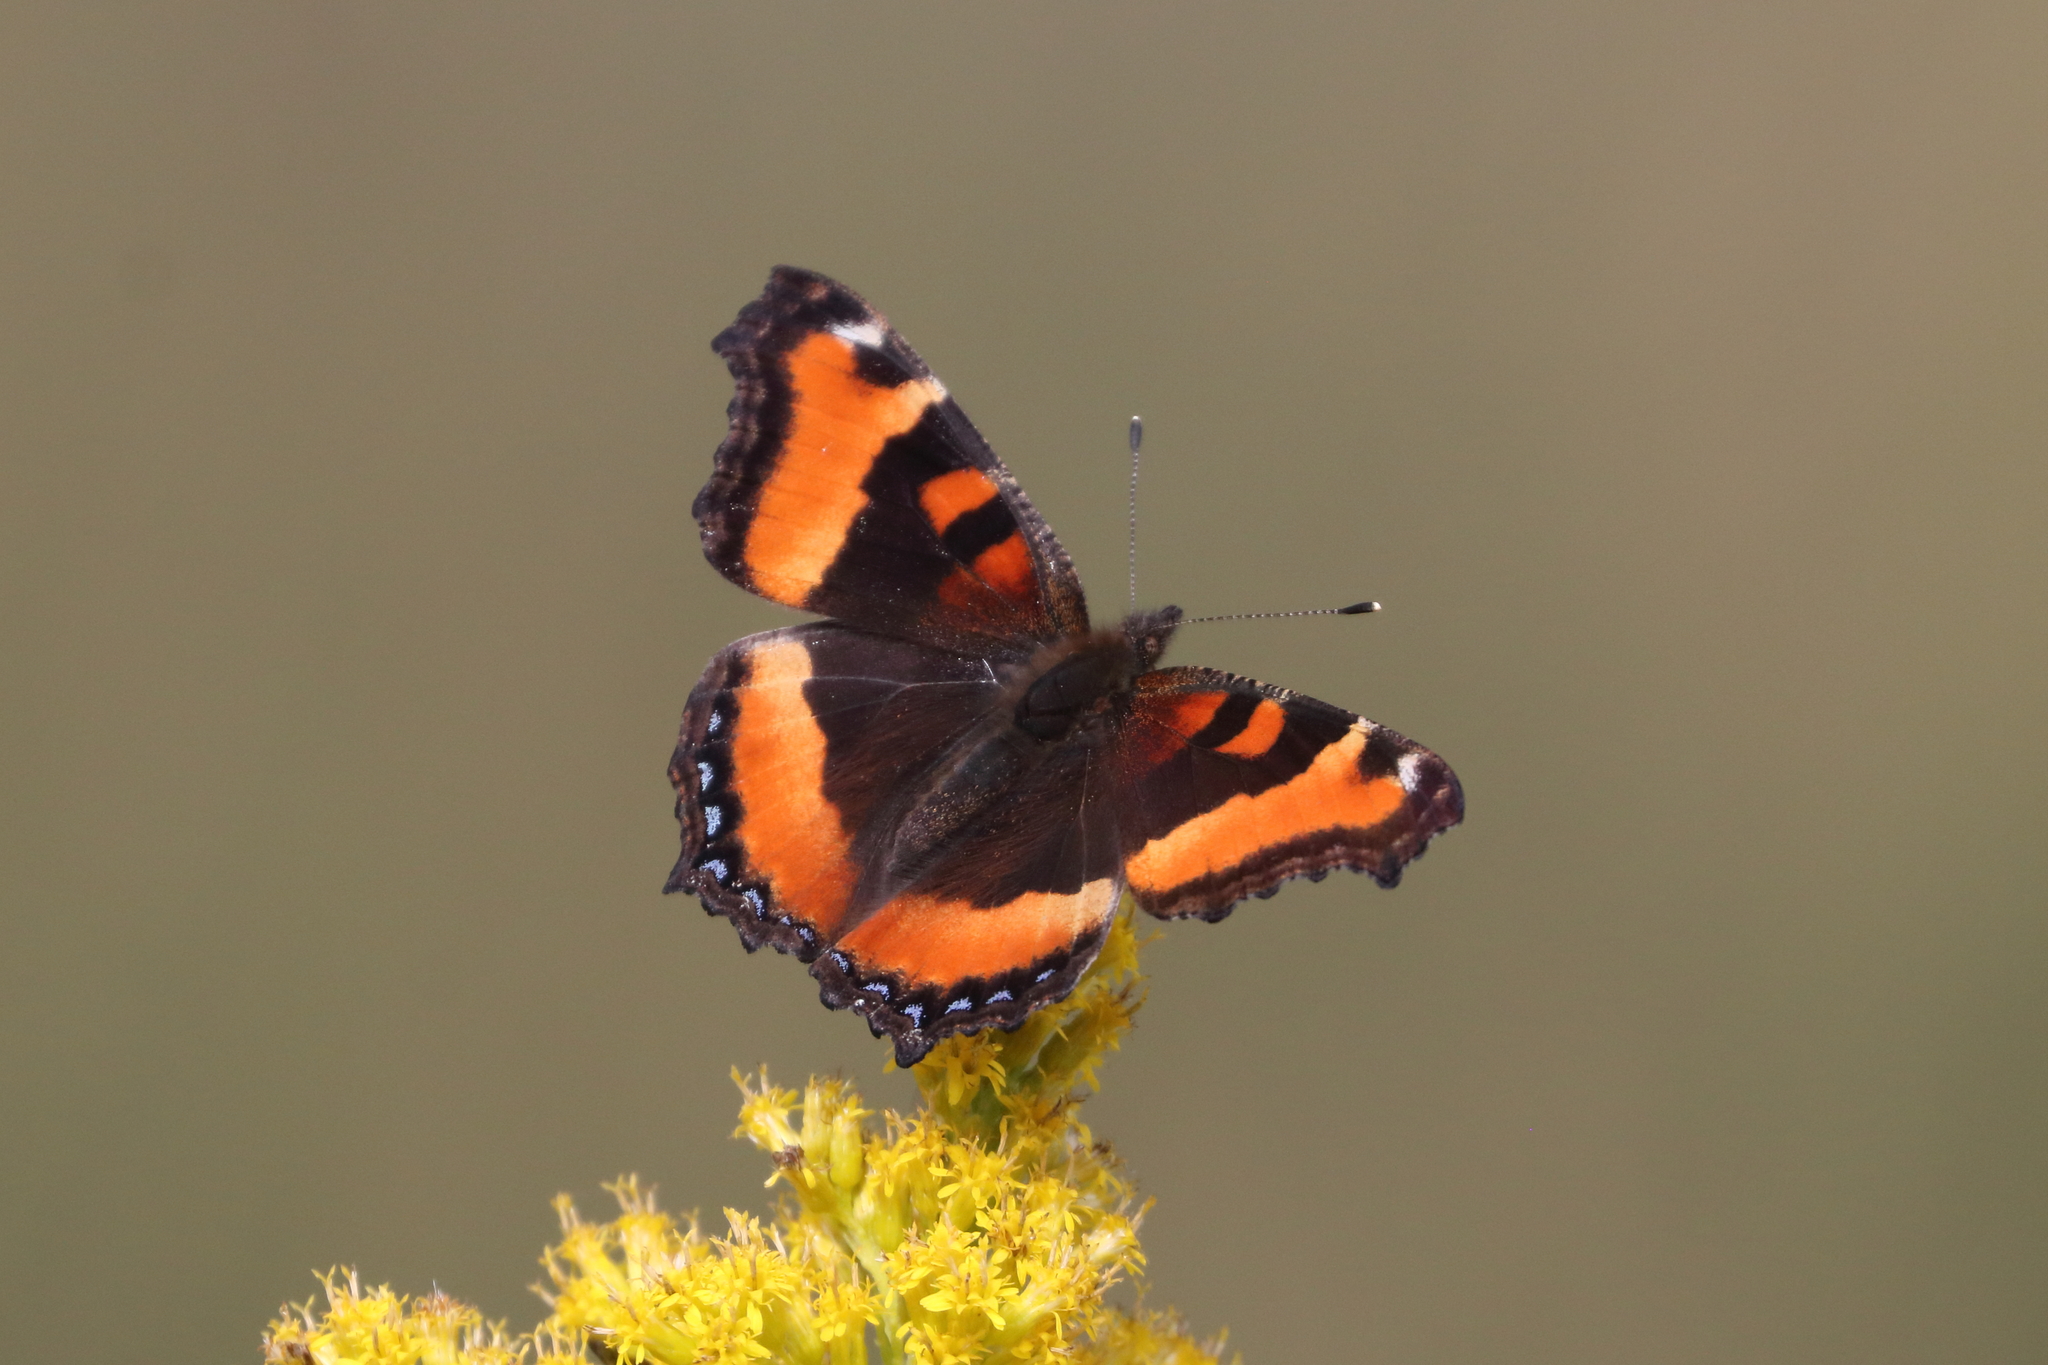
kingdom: Animalia
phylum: Arthropoda
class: Insecta
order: Lepidoptera
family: Nymphalidae
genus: Aglais
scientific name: Aglais milberti
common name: Milbert's tortoiseshell
